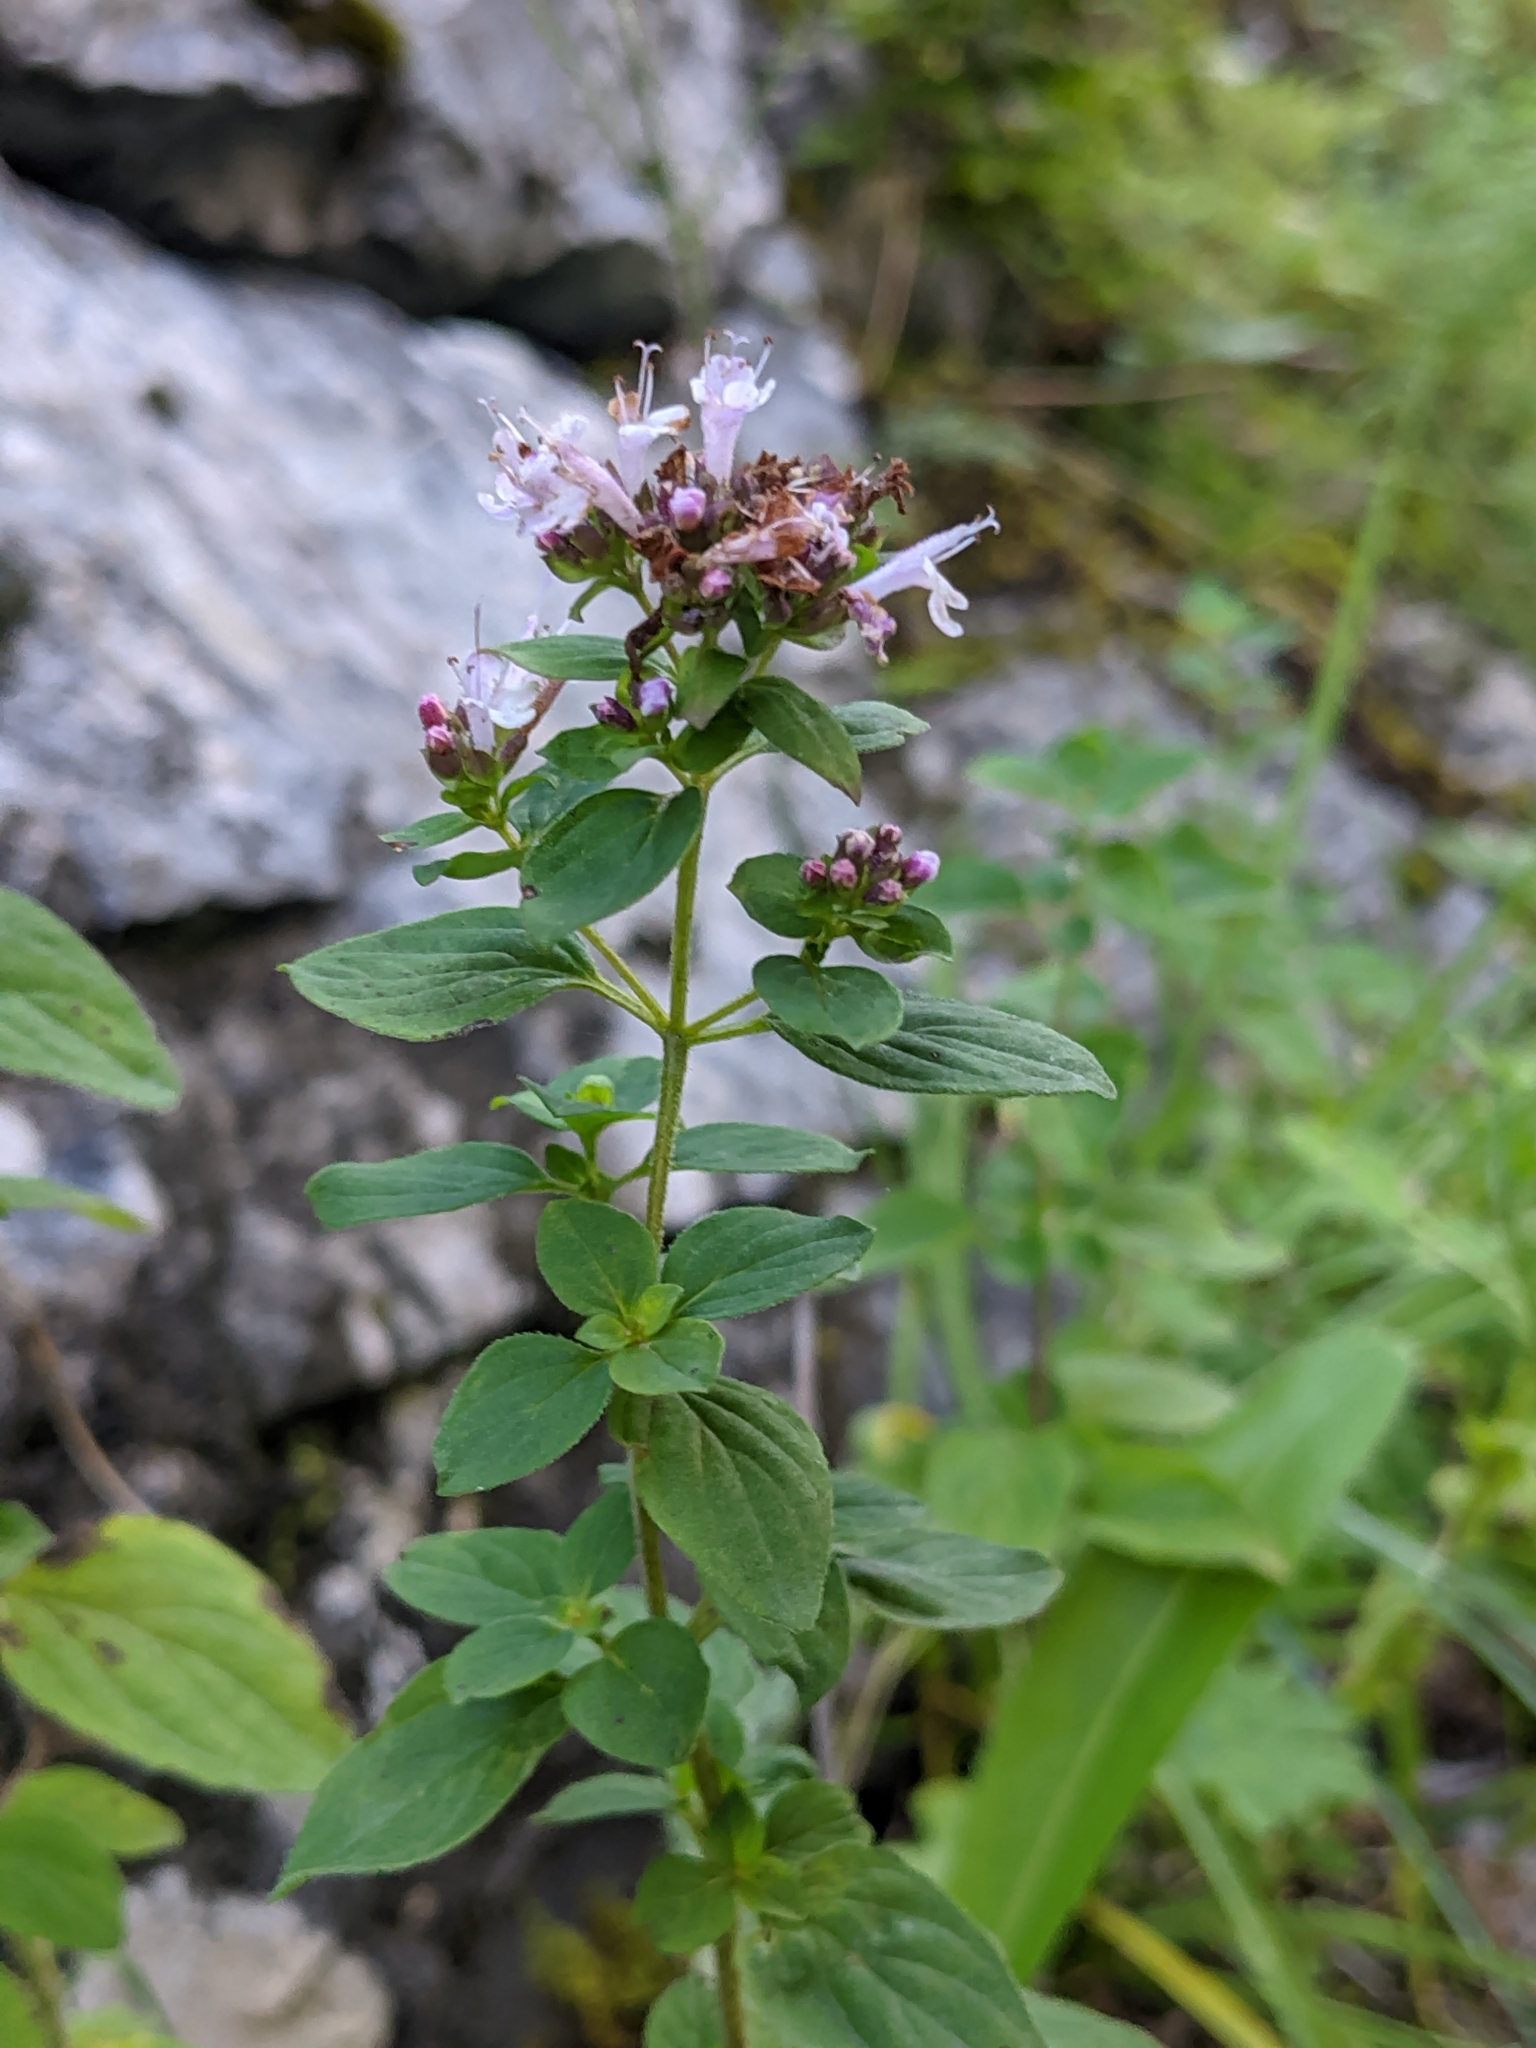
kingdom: Plantae
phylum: Tracheophyta
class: Magnoliopsida
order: Lamiales
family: Lamiaceae
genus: Origanum
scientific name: Origanum vulgare
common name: Wild marjoram
